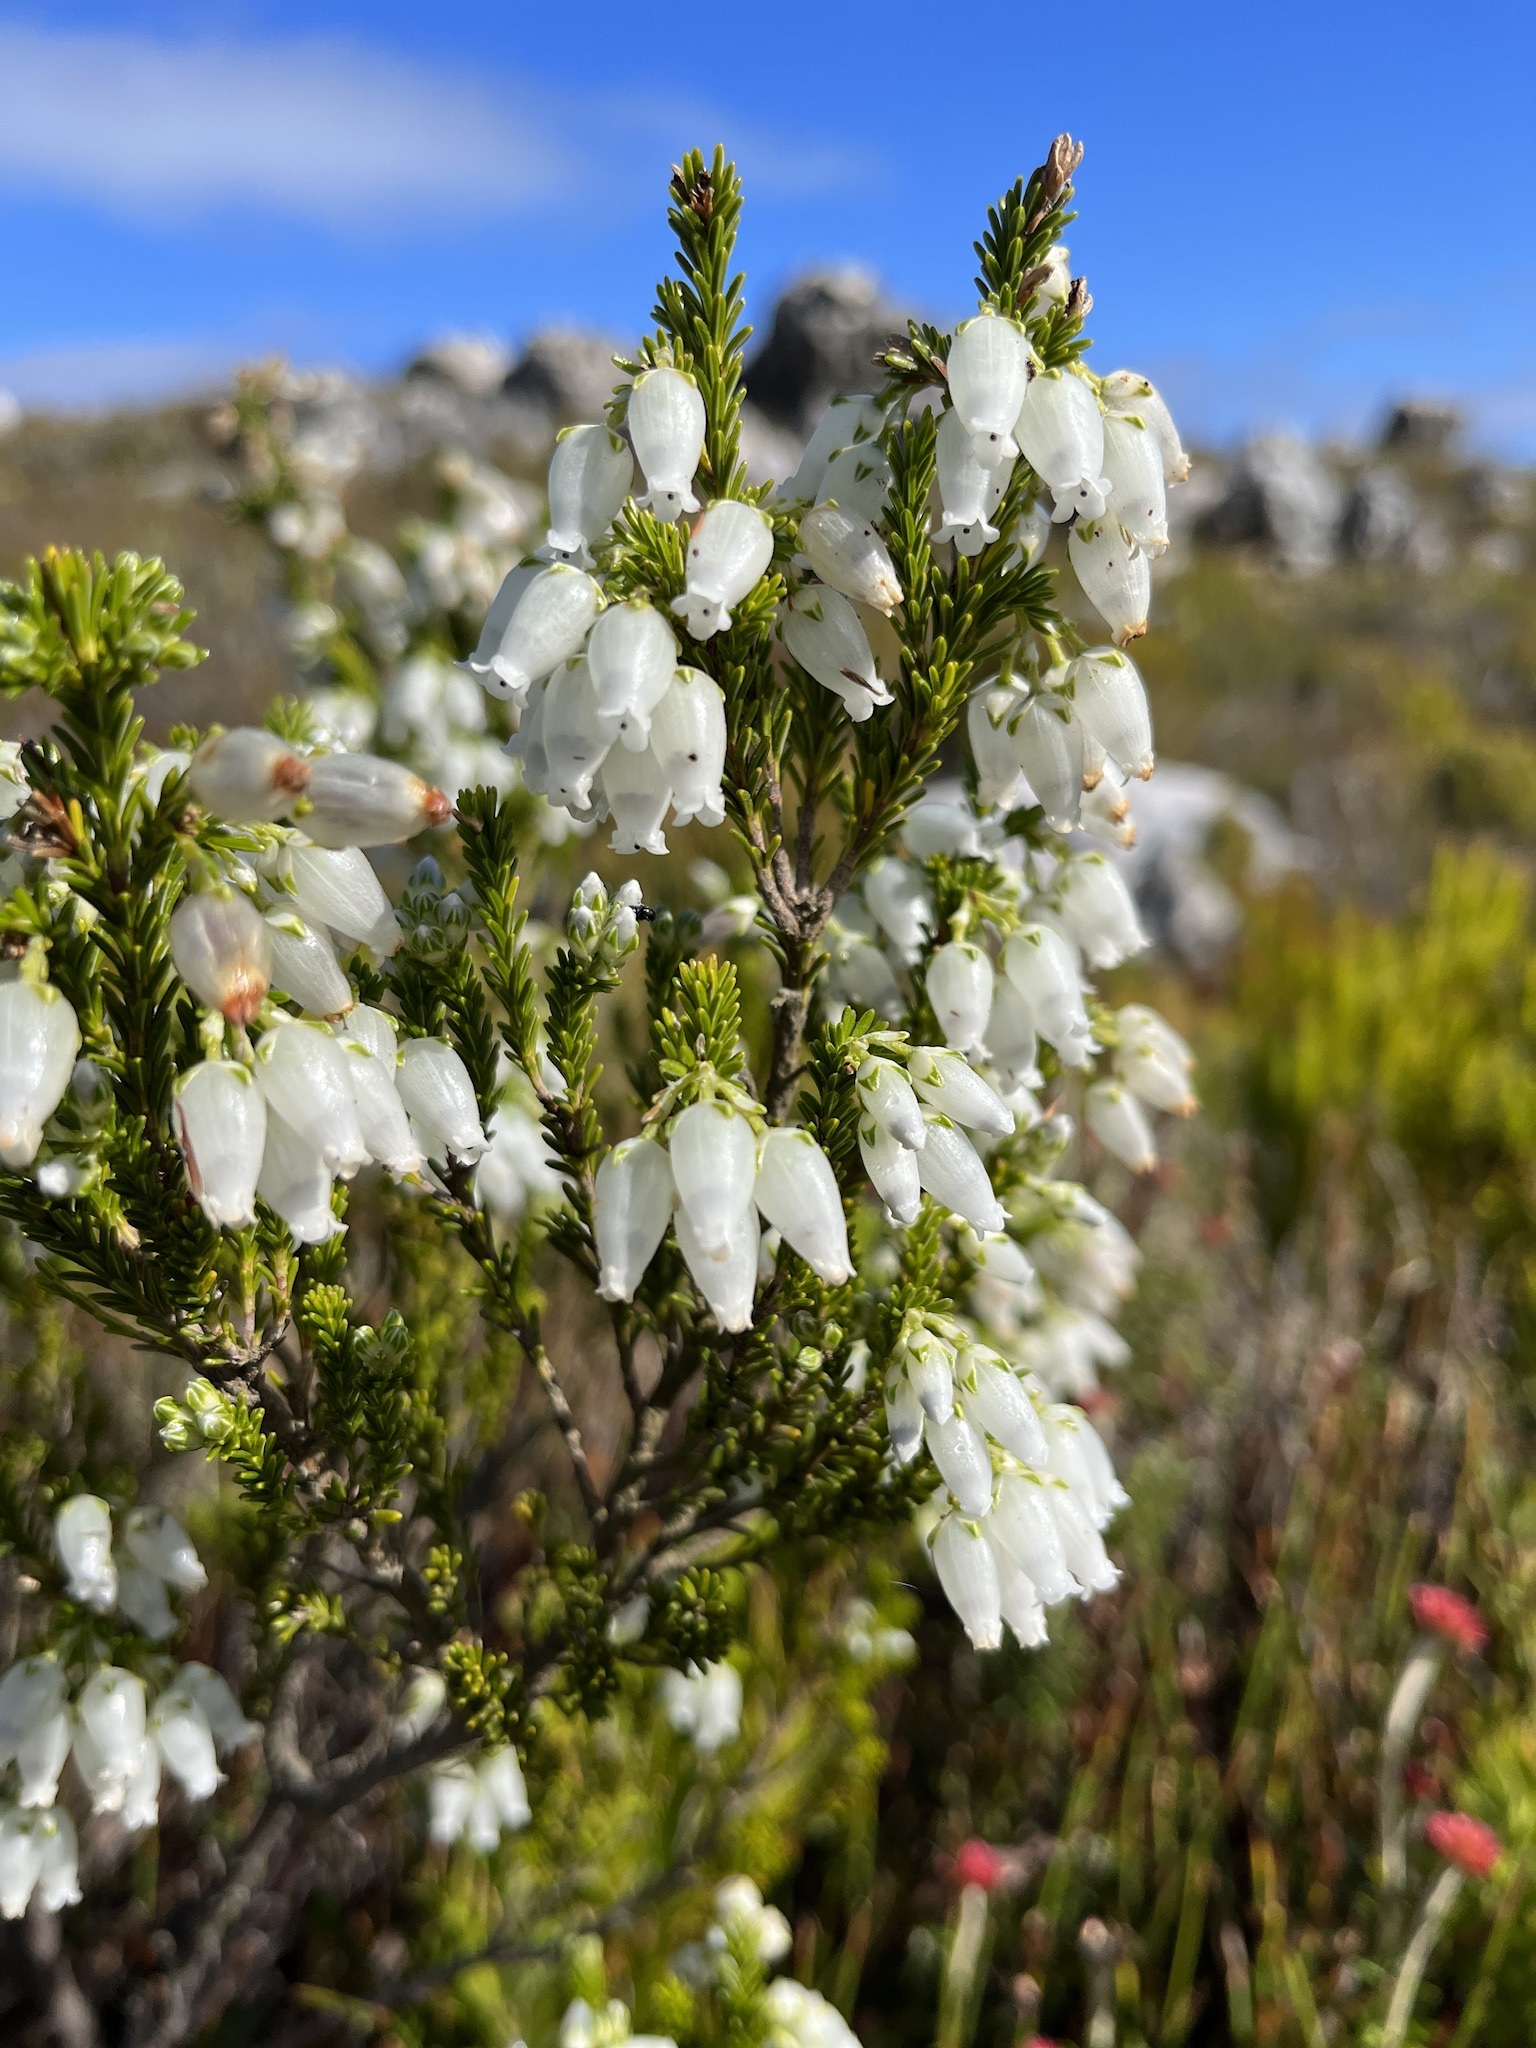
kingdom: Plantae
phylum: Tracheophyta
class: Magnoliopsida
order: Ericales
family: Ericaceae
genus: Erica
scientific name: Erica physodes
